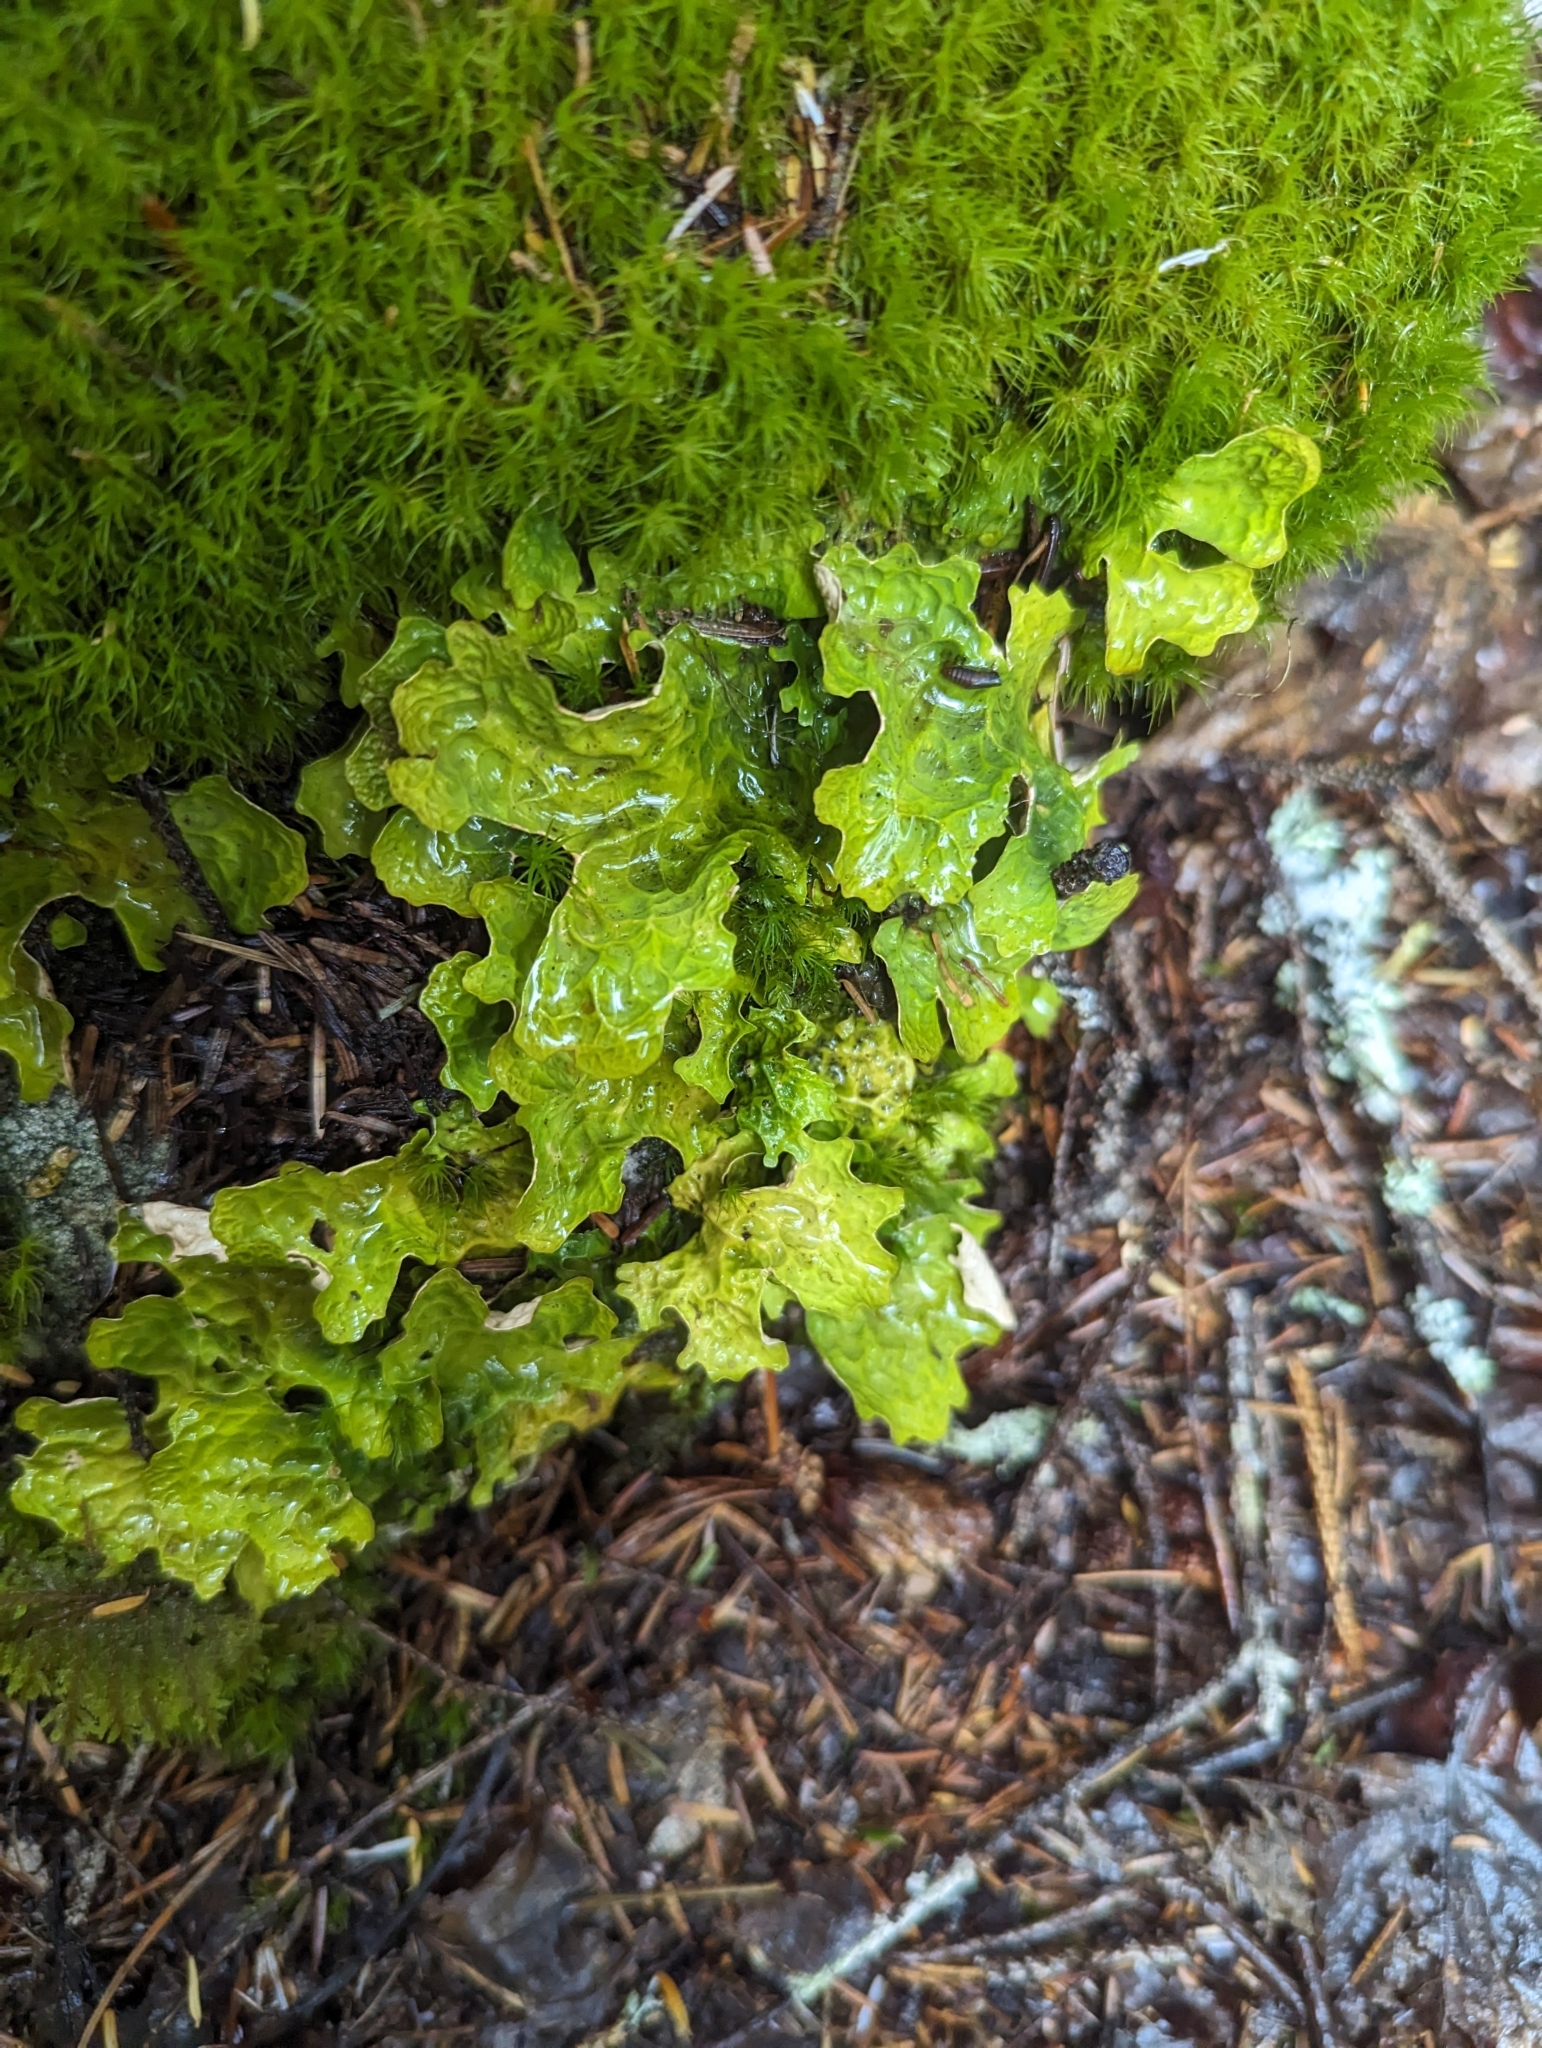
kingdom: Fungi
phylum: Ascomycota
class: Lecanoromycetes
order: Peltigerales
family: Lobariaceae
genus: Lobaria
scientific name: Lobaria linita
